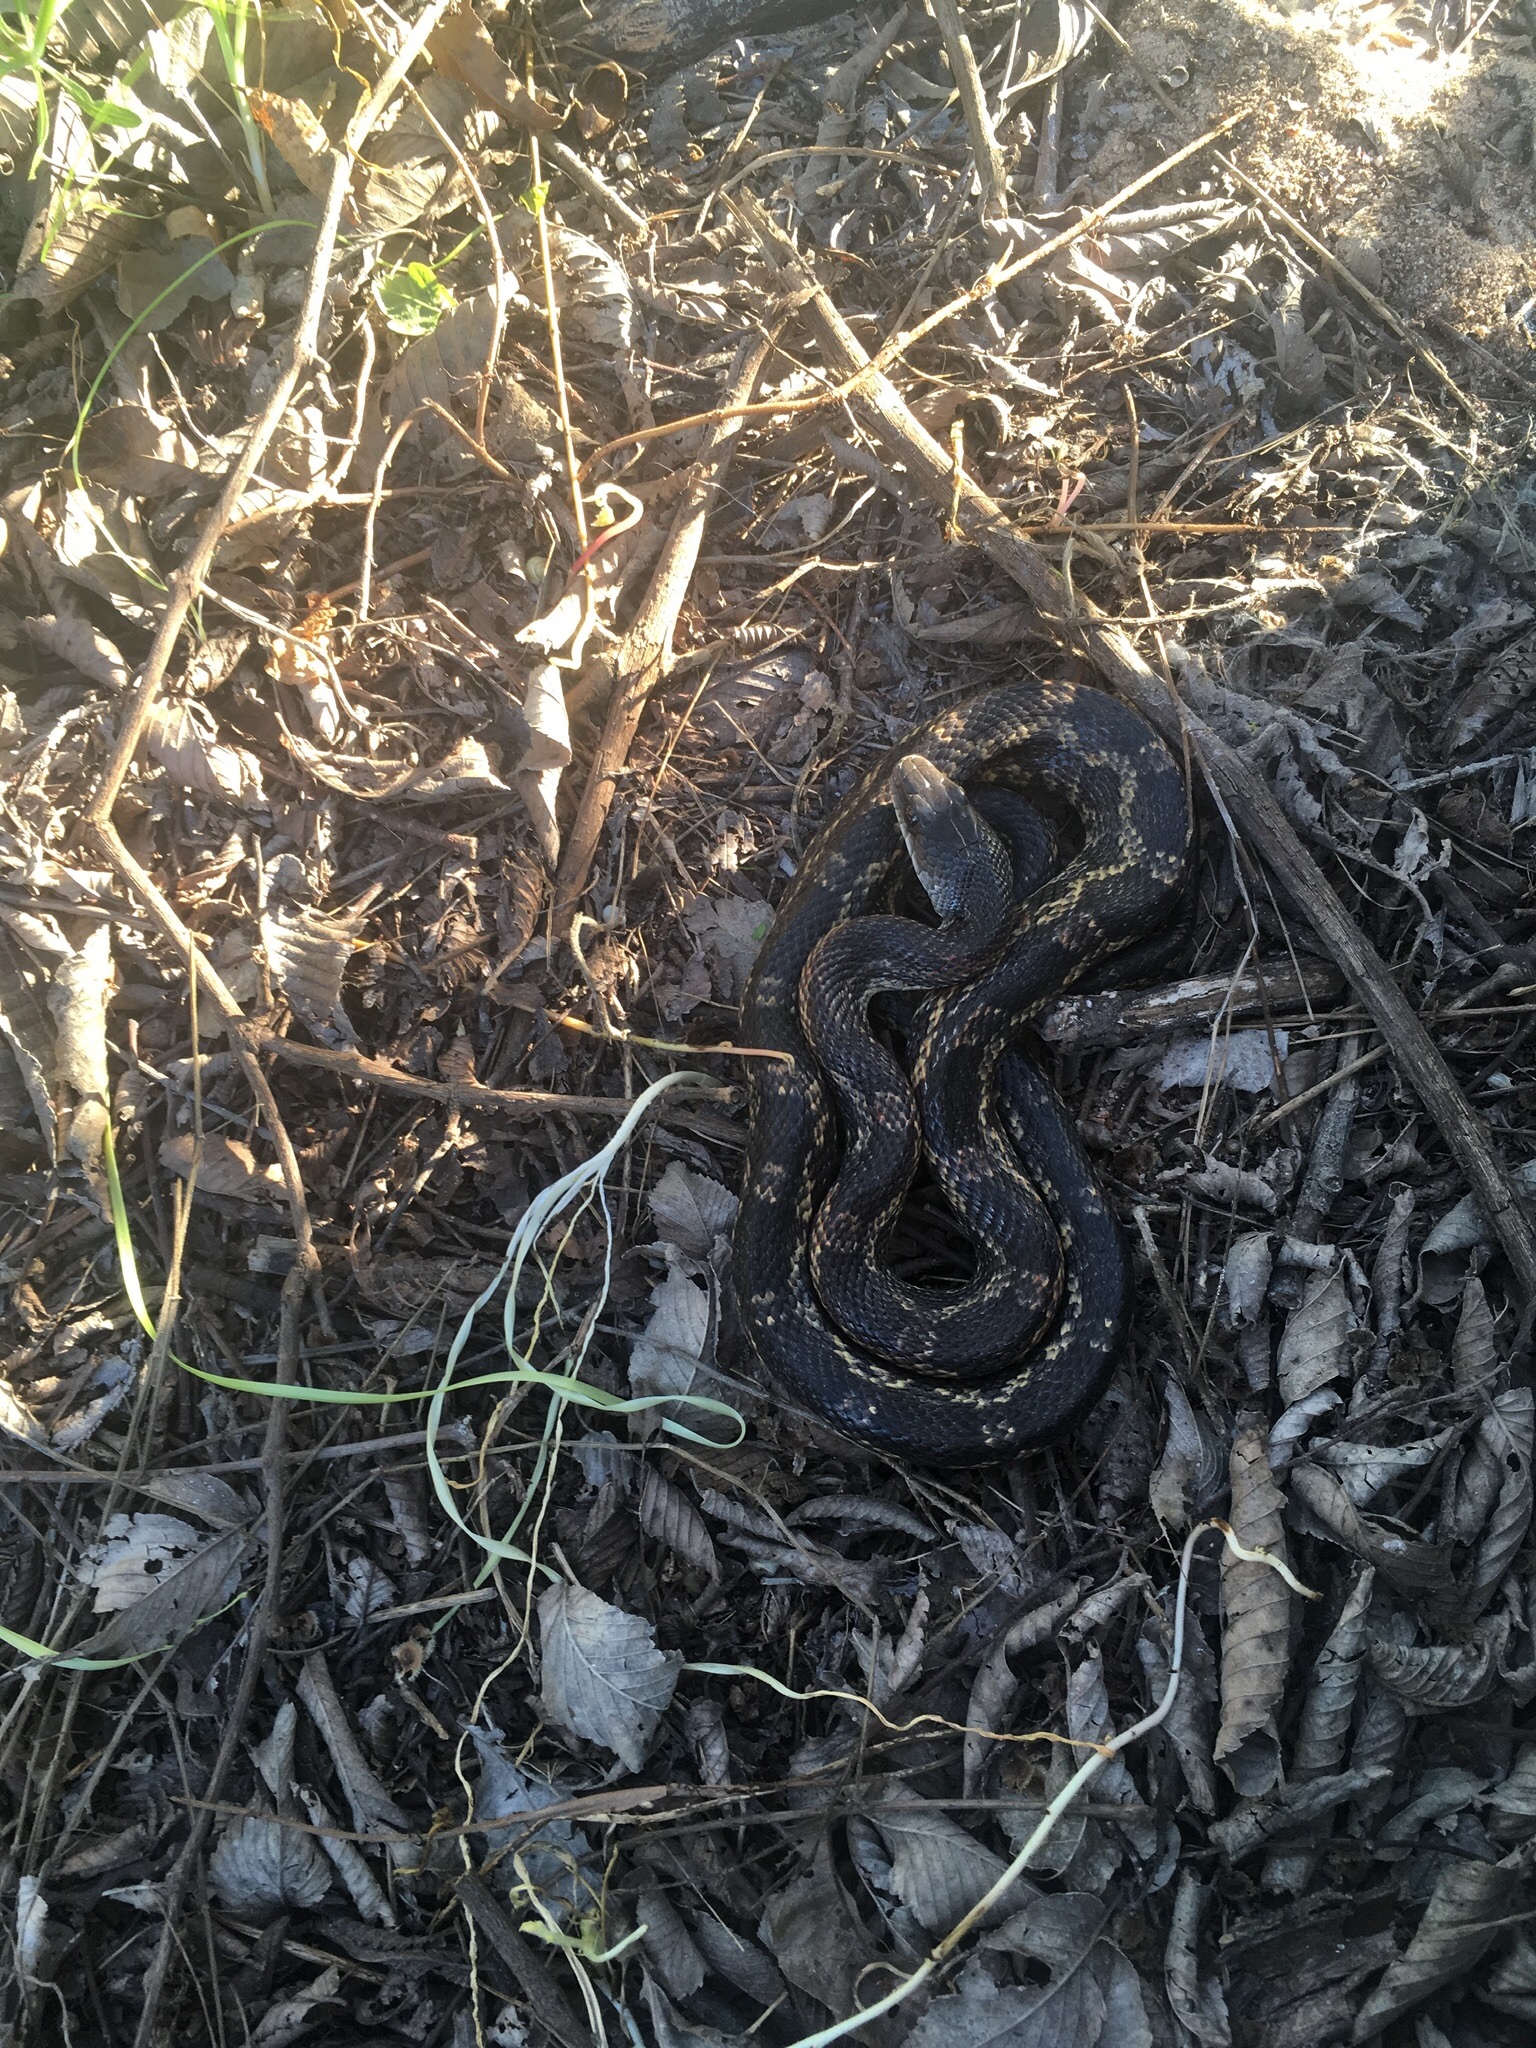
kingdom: Animalia
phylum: Chordata
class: Squamata
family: Colubridae
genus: Pantherophis
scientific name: Pantherophis obsoletus
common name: Black rat snake
